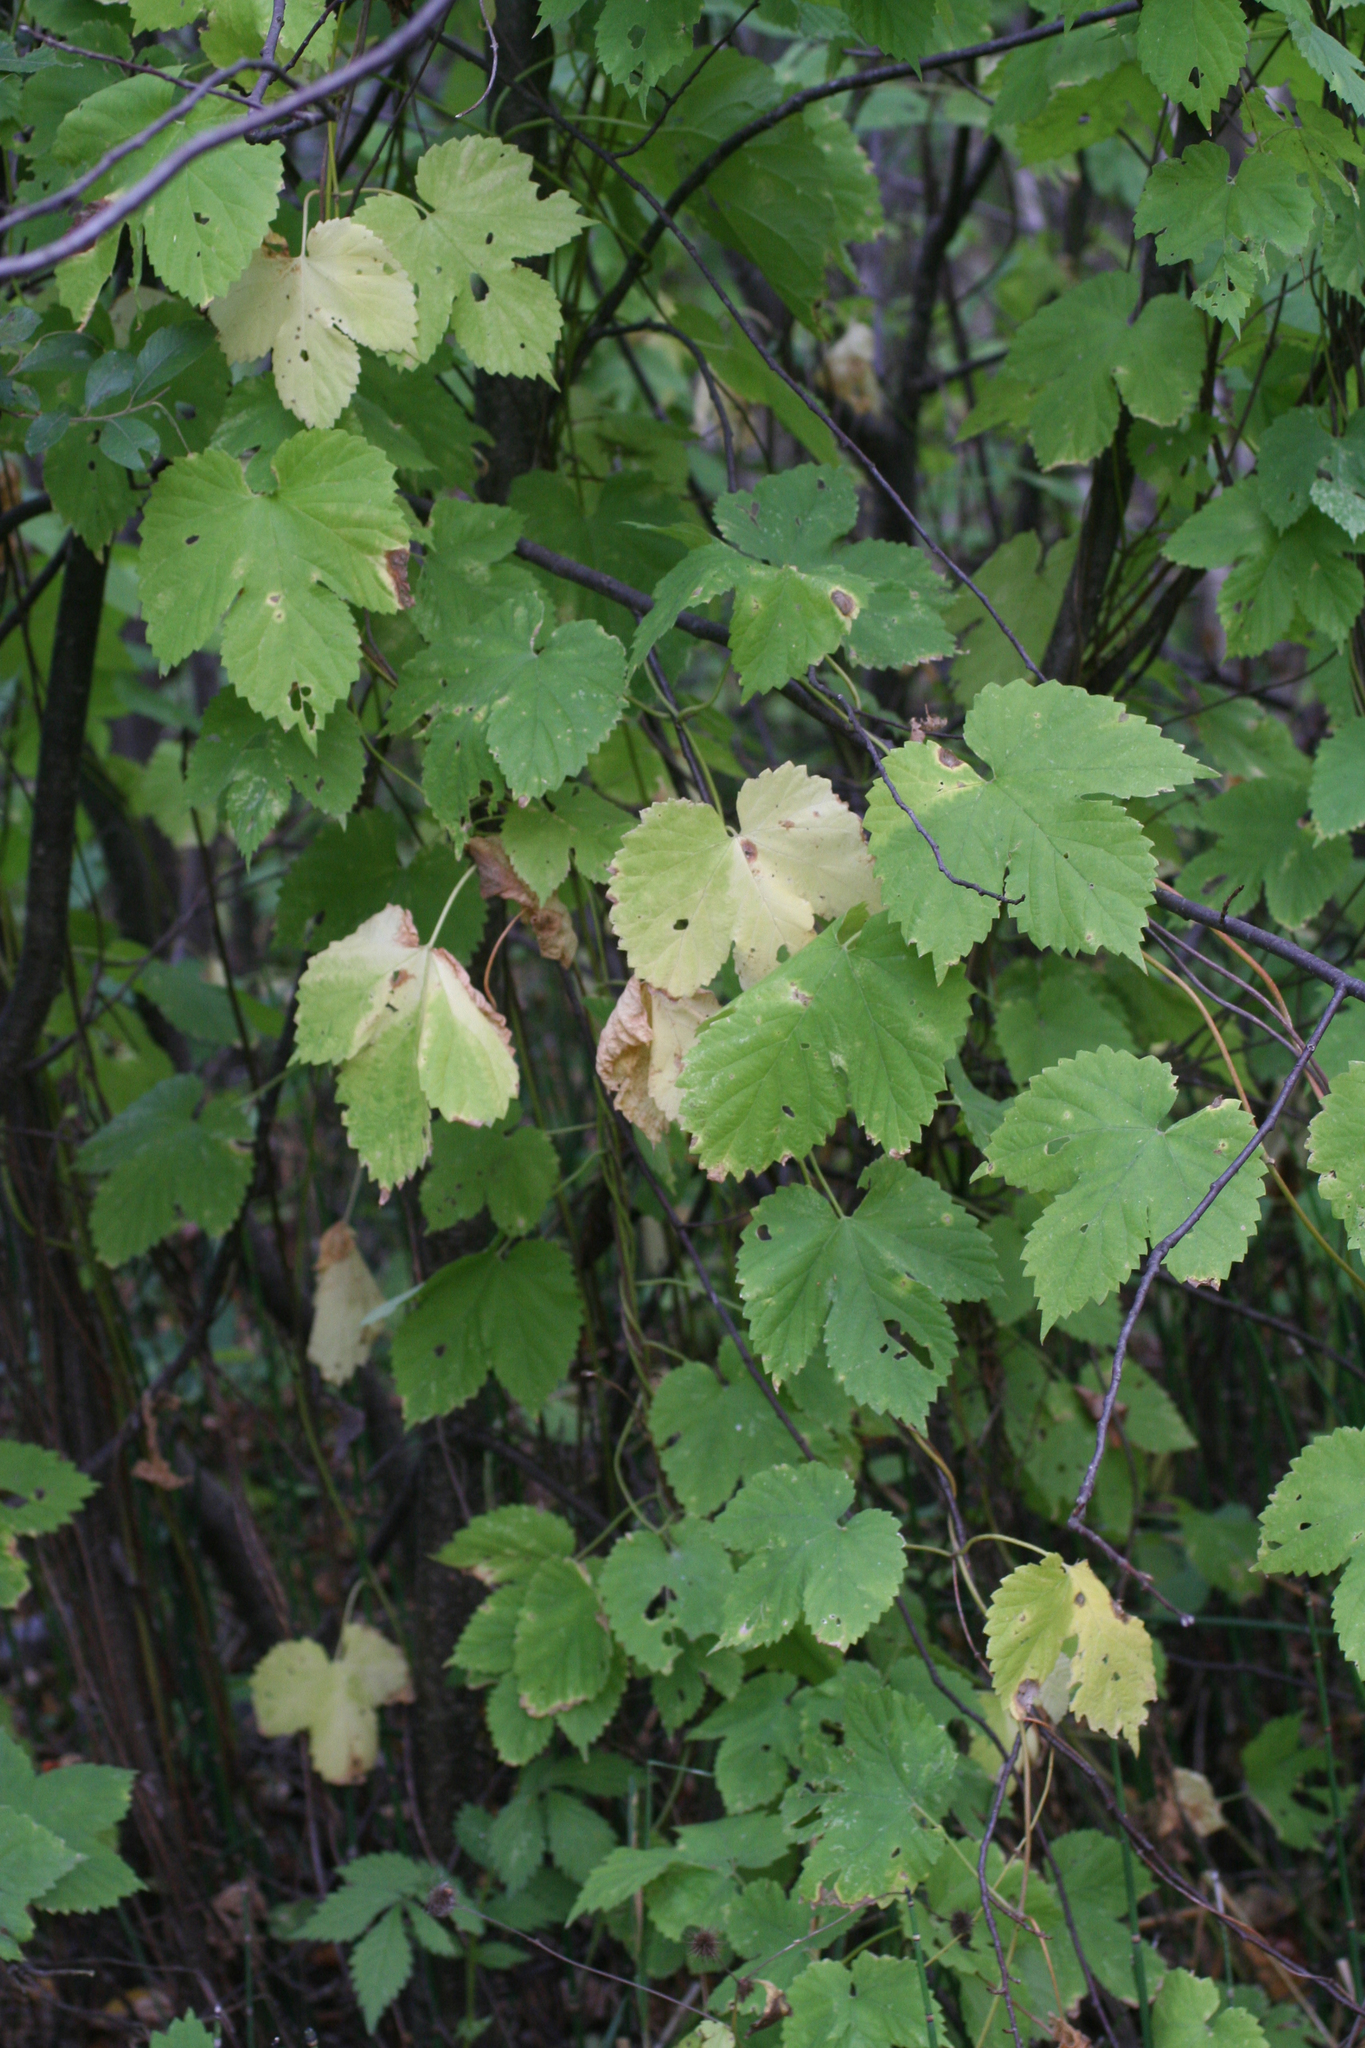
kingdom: Plantae
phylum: Tracheophyta
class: Magnoliopsida
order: Rosales
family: Cannabaceae
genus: Humulus
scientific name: Humulus lupulus
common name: Hop
